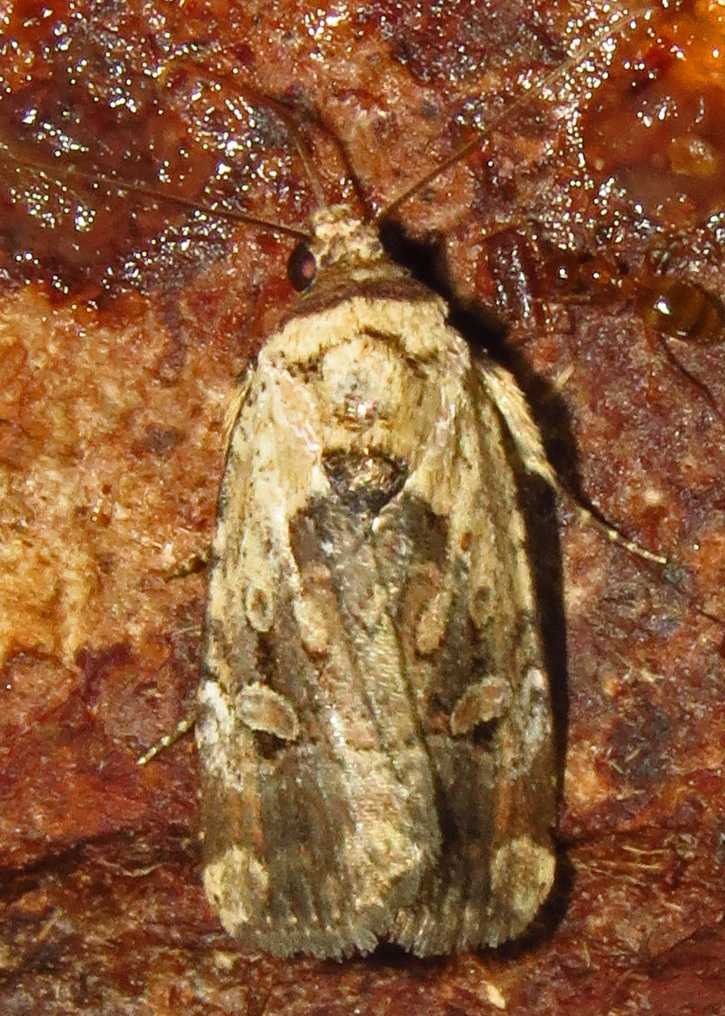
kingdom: Animalia
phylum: Arthropoda
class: Insecta
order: Lepidoptera
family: Noctuidae
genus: Elaphria
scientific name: Elaphria chalcedonia
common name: Chalcedony midget
